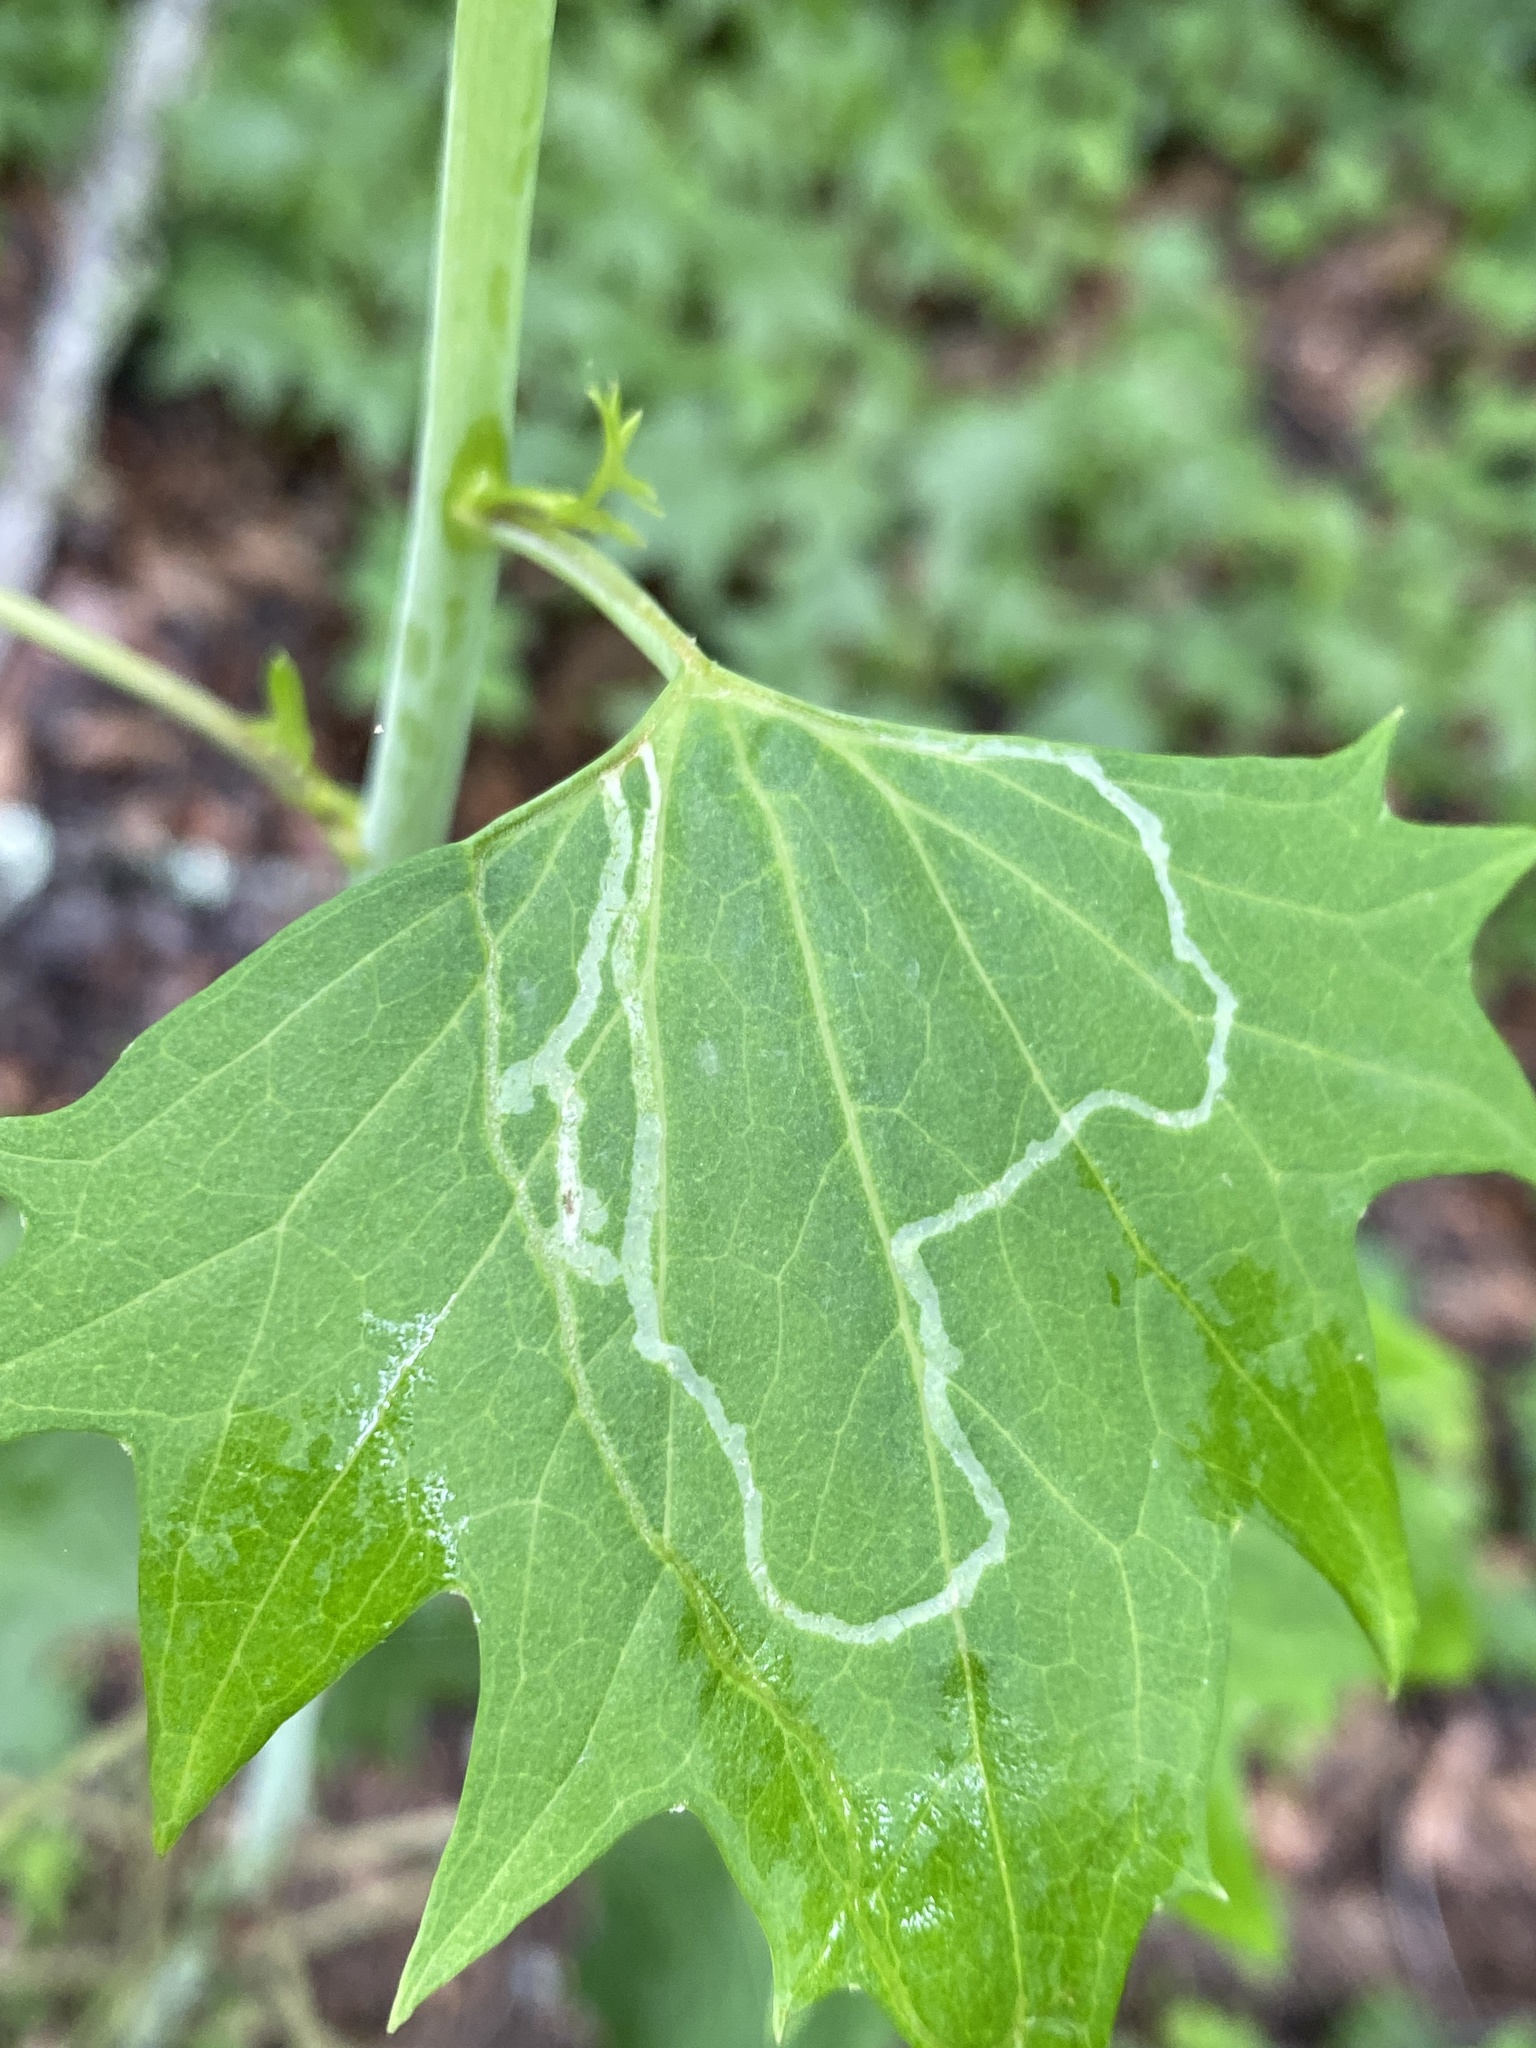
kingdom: Animalia
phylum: Arthropoda
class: Insecta
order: Lepidoptera
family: Gracillariidae
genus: Phyllocnistis
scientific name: Phyllocnistis insignis
